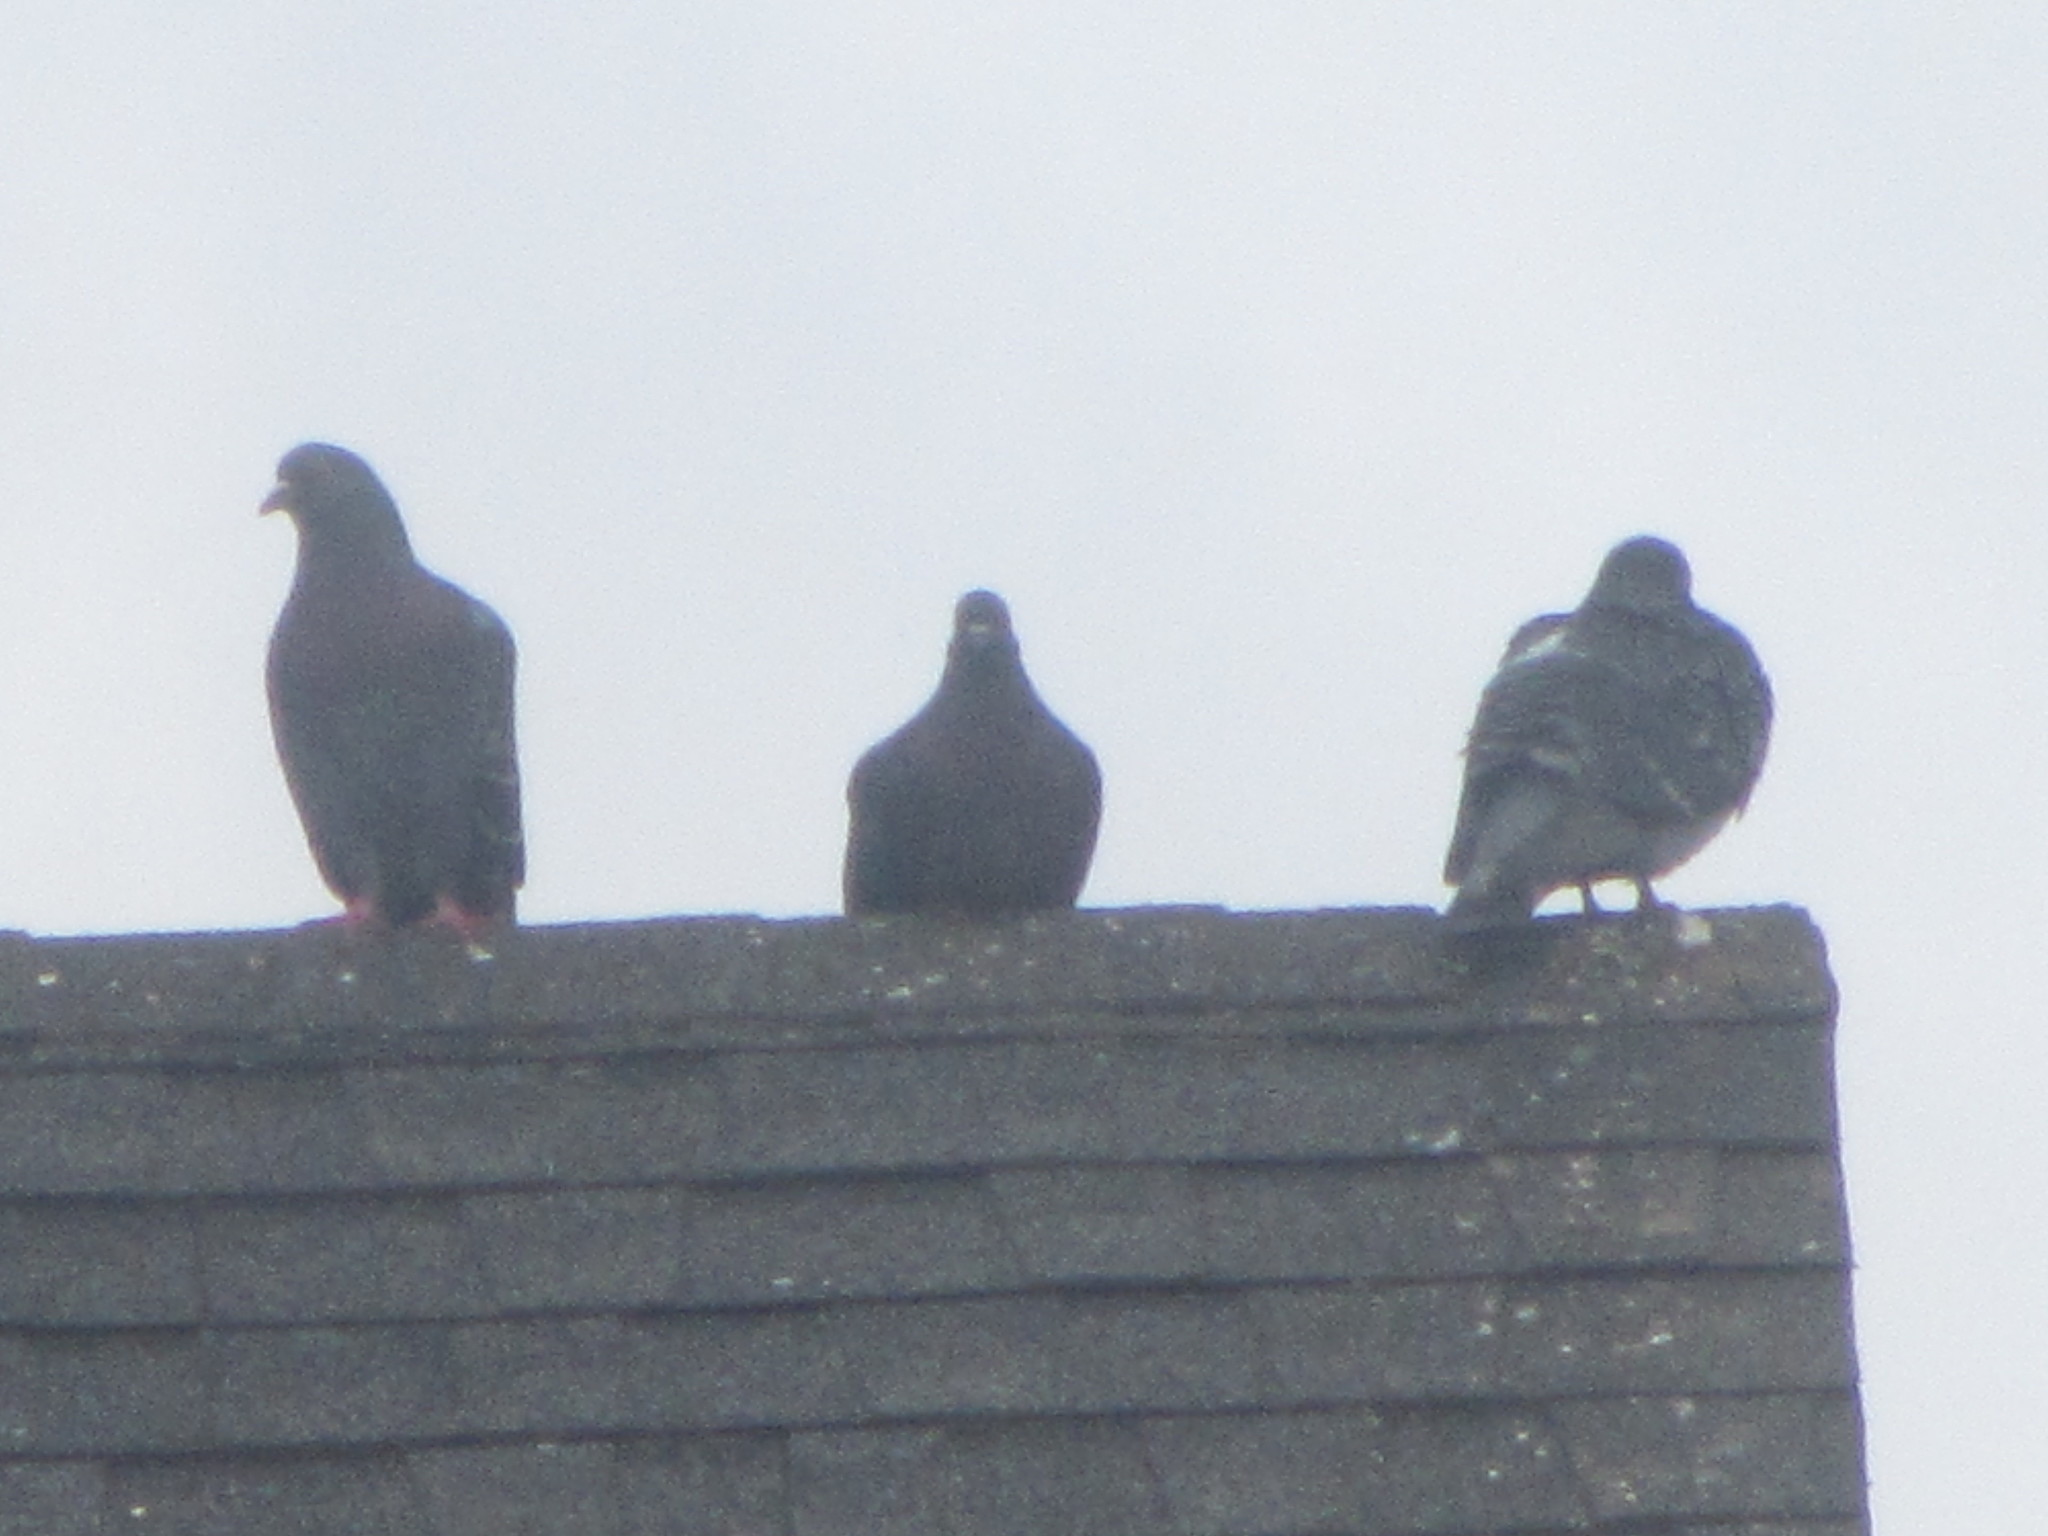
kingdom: Animalia
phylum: Chordata
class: Aves
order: Columbiformes
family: Columbidae
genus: Columba
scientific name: Columba livia
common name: Rock pigeon
